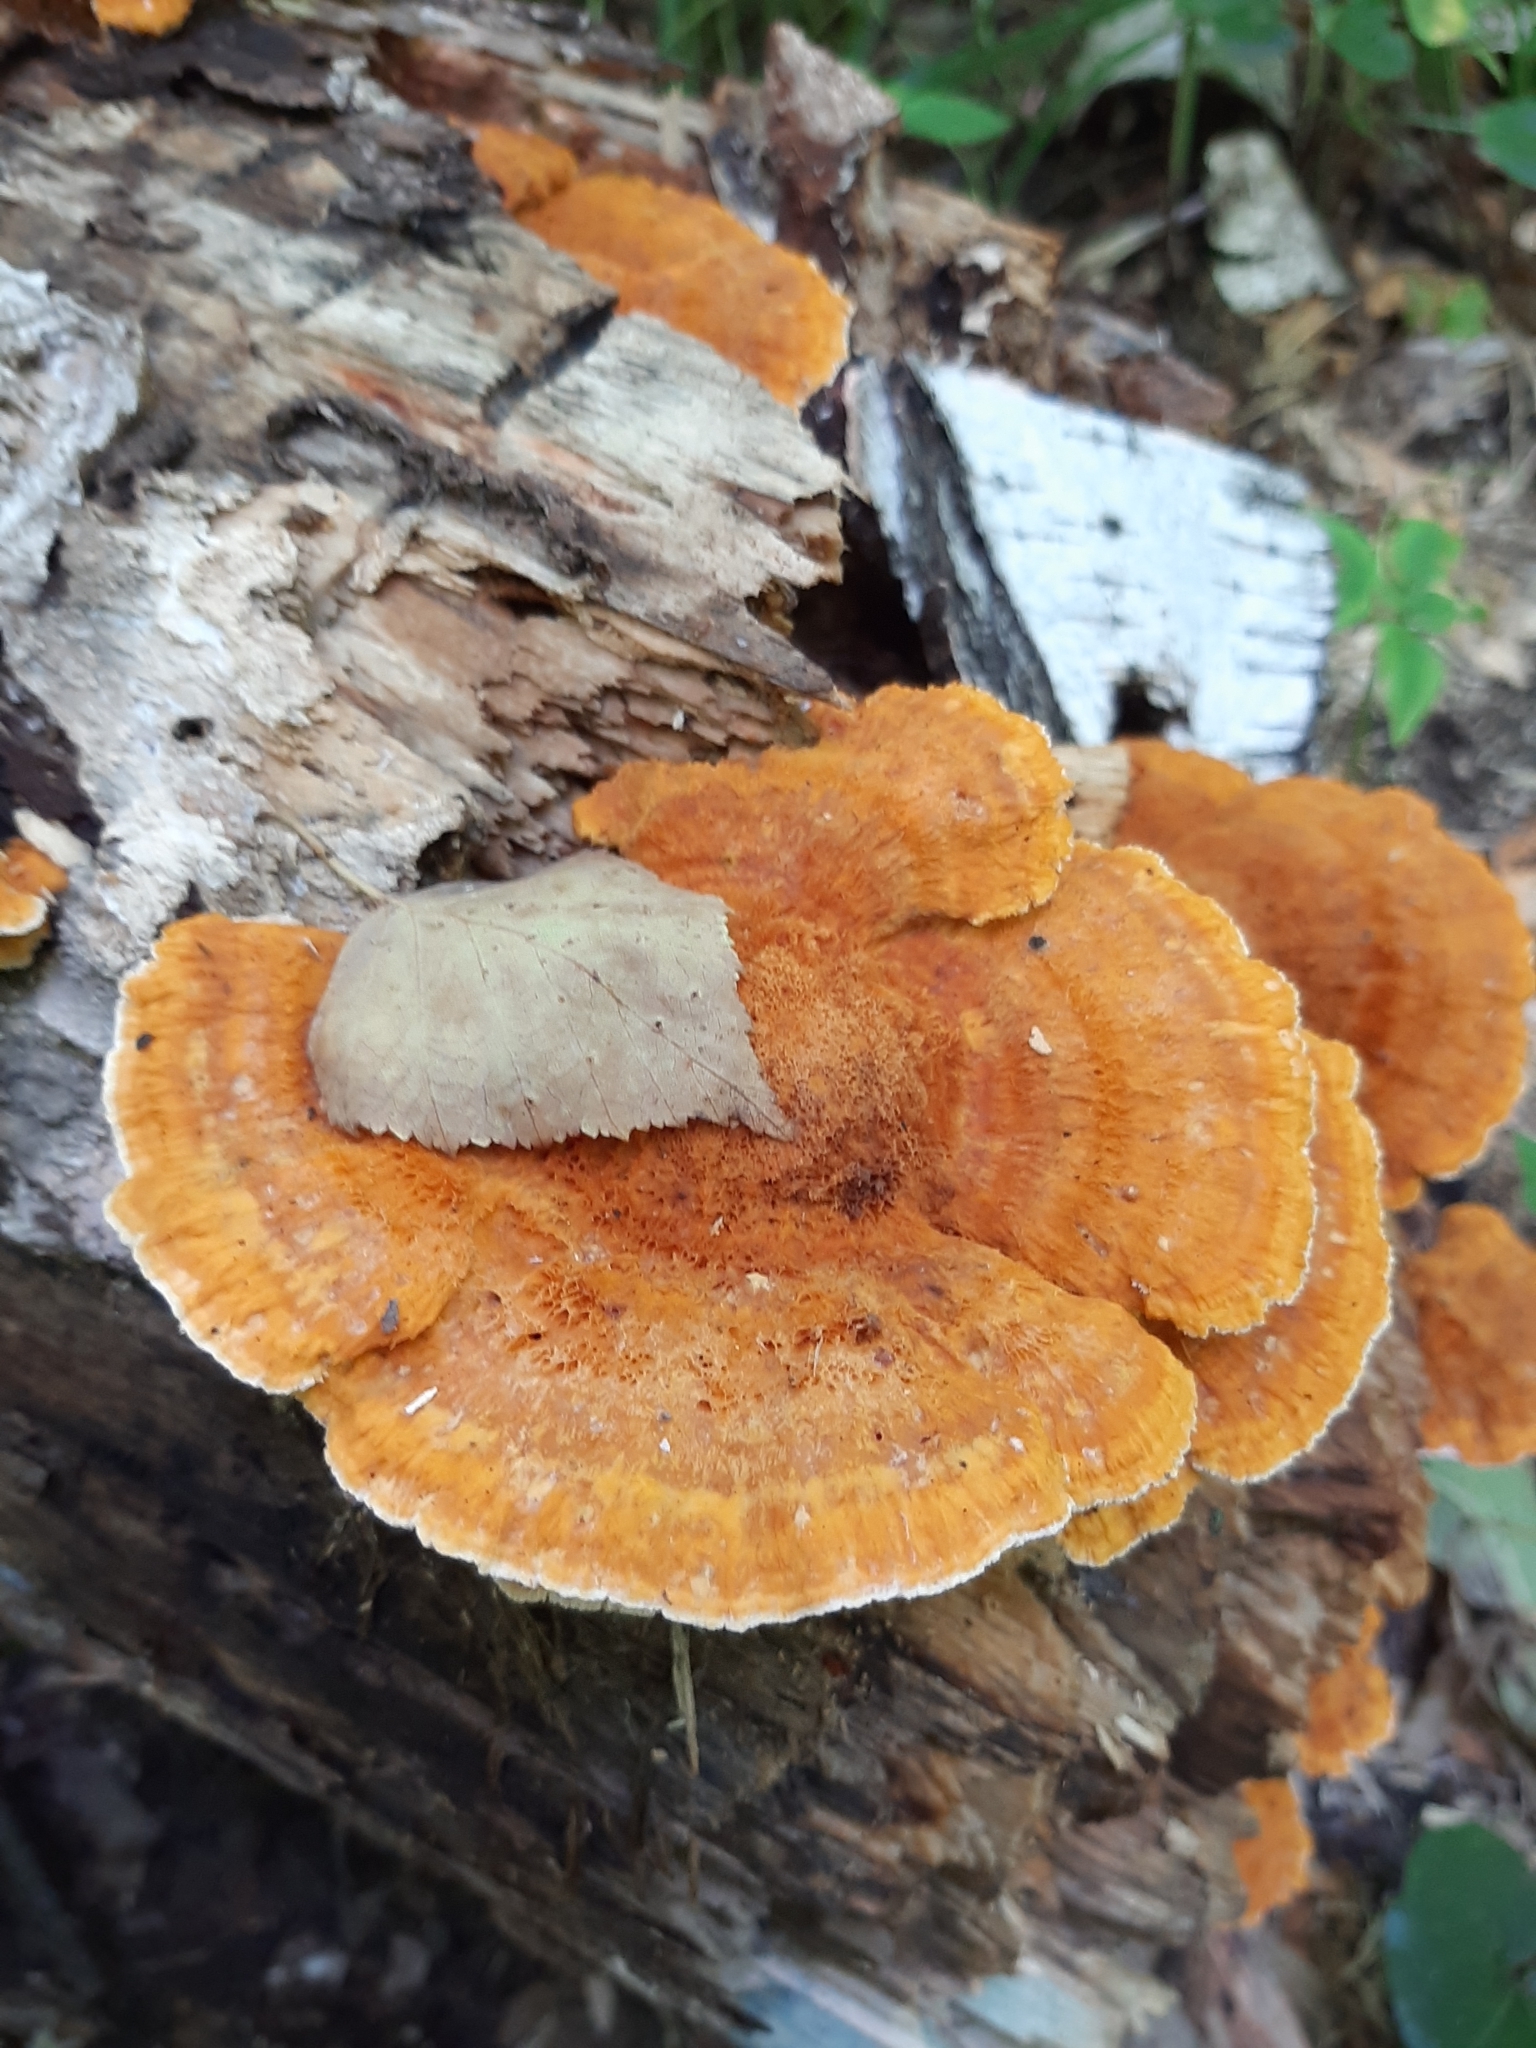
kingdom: Fungi
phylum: Basidiomycota
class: Agaricomycetes
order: Polyporales
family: Pycnoporellaceae
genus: Pycnoporellus
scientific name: Pycnoporellus fulgens
